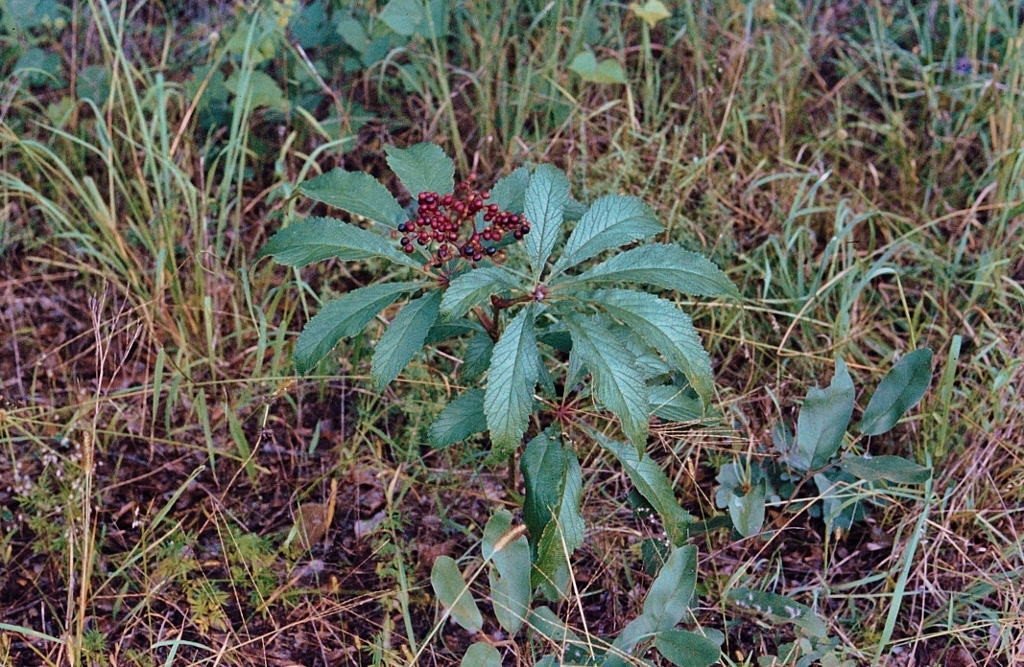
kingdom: Plantae
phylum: Tracheophyta
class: Magnoliopsida
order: Vitales
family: Vitaceae
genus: Cyphostemma
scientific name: Cyphostemma princeae
